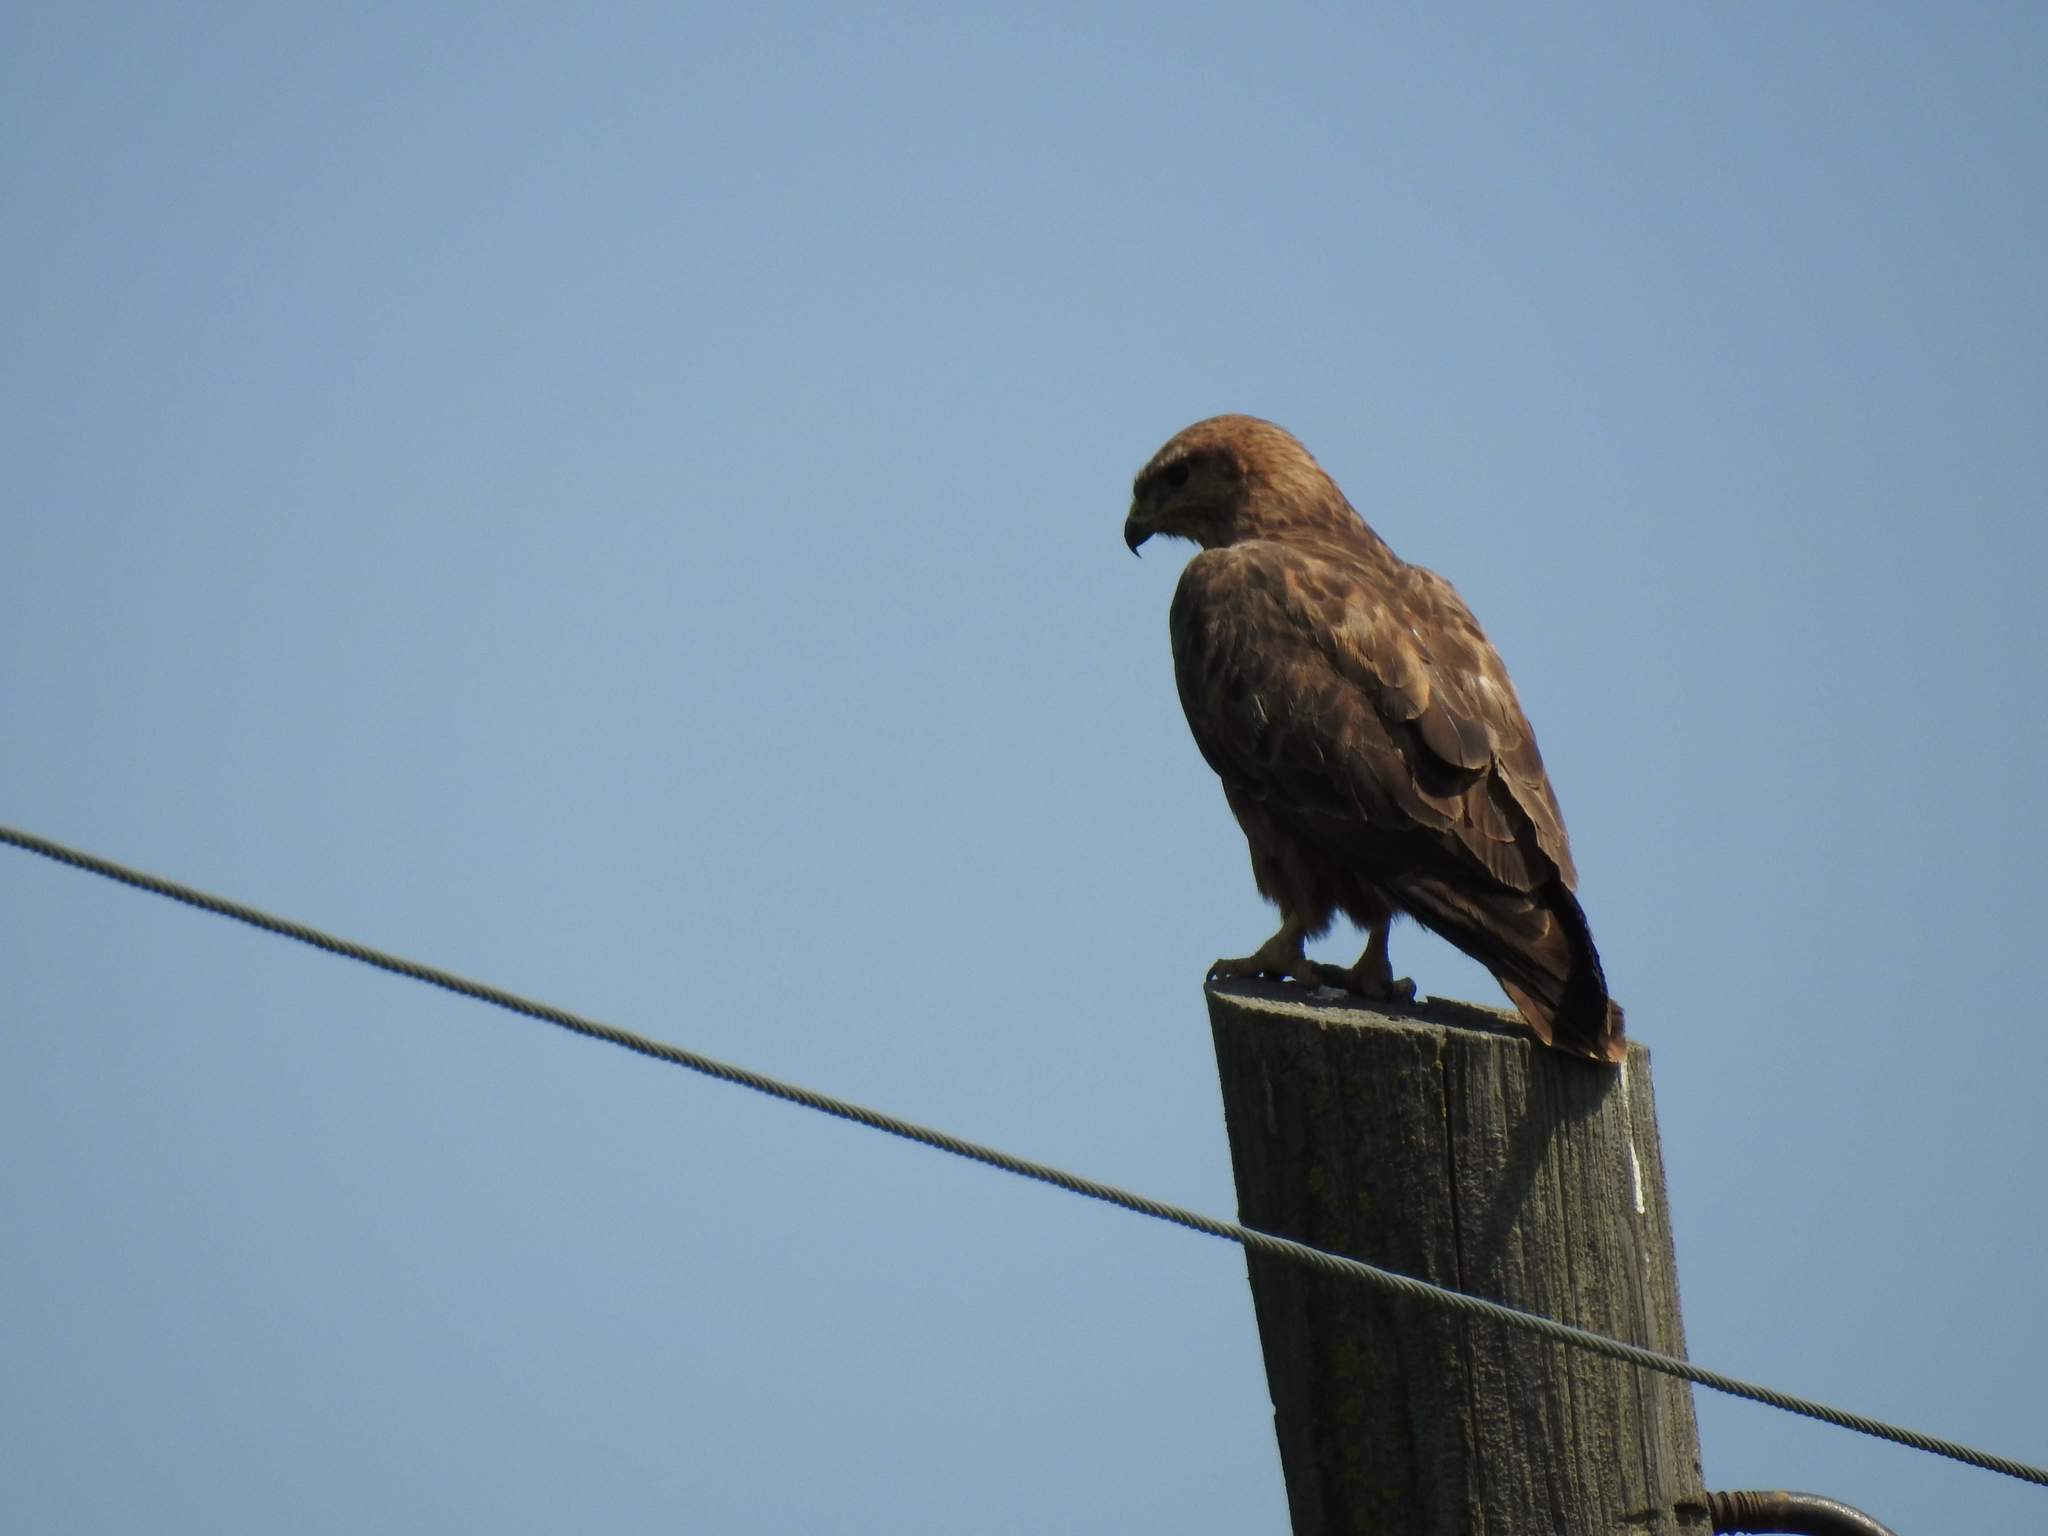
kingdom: Animalia
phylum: Chordata
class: Aves
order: Accipitriformes
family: Accipitridae
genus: Buteo
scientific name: Buteo buteo
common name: Common buzzard
